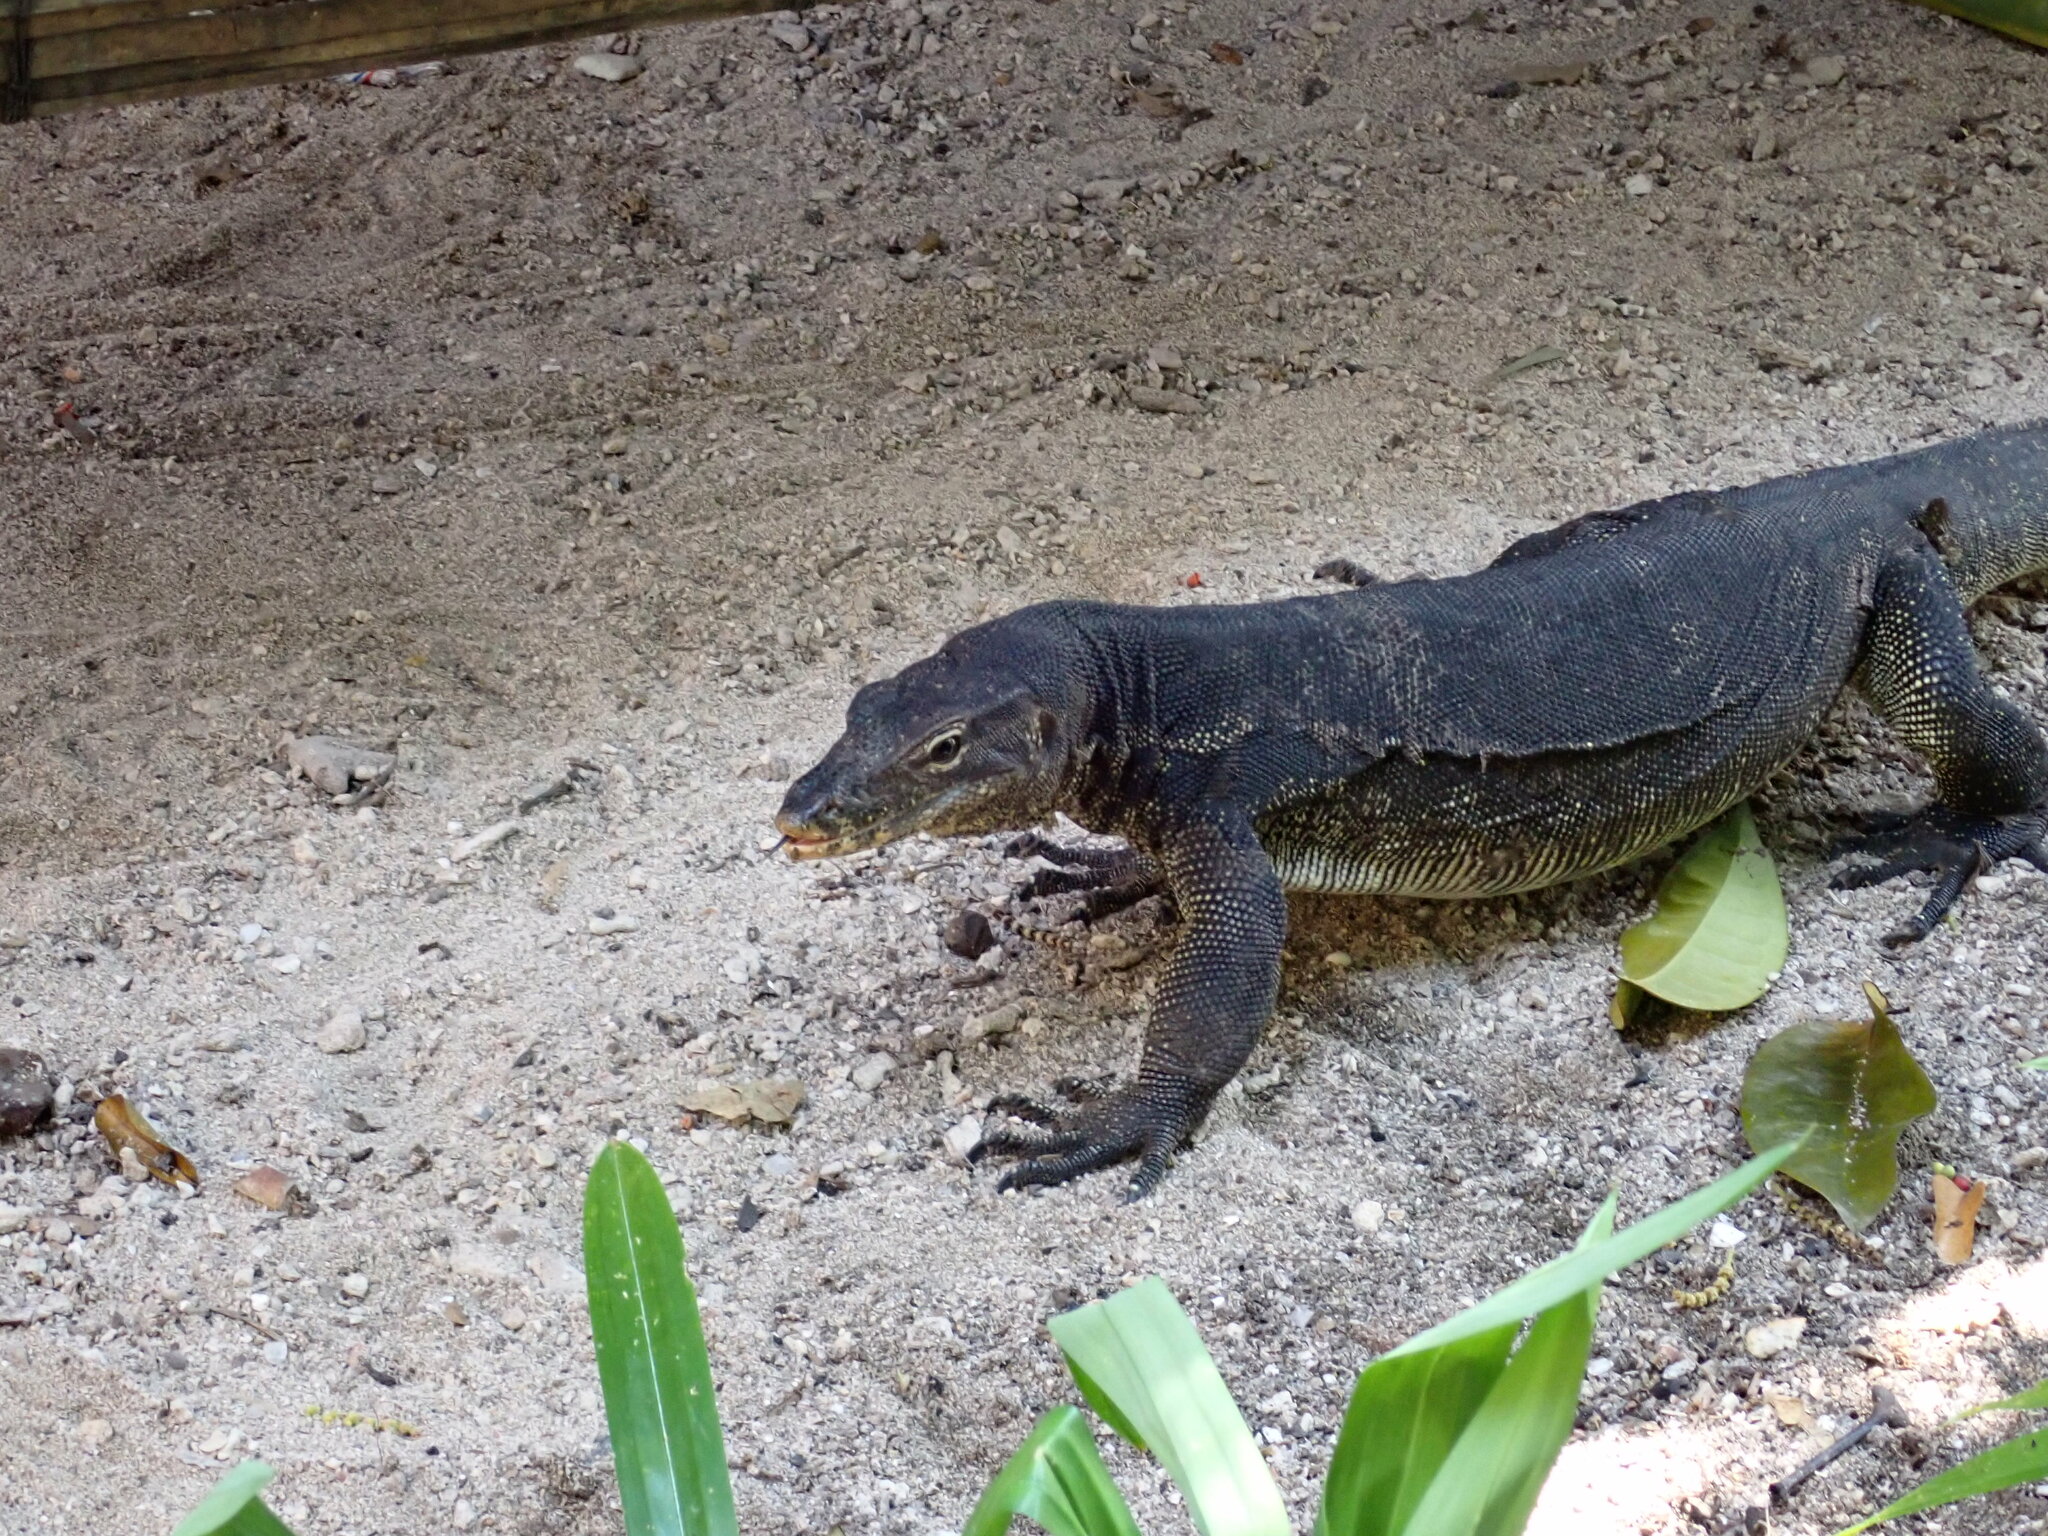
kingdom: Animalia
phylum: Chordata
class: Squamata
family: Varanidae
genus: Varanus
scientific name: Varanus salvator
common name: Common water monitor
